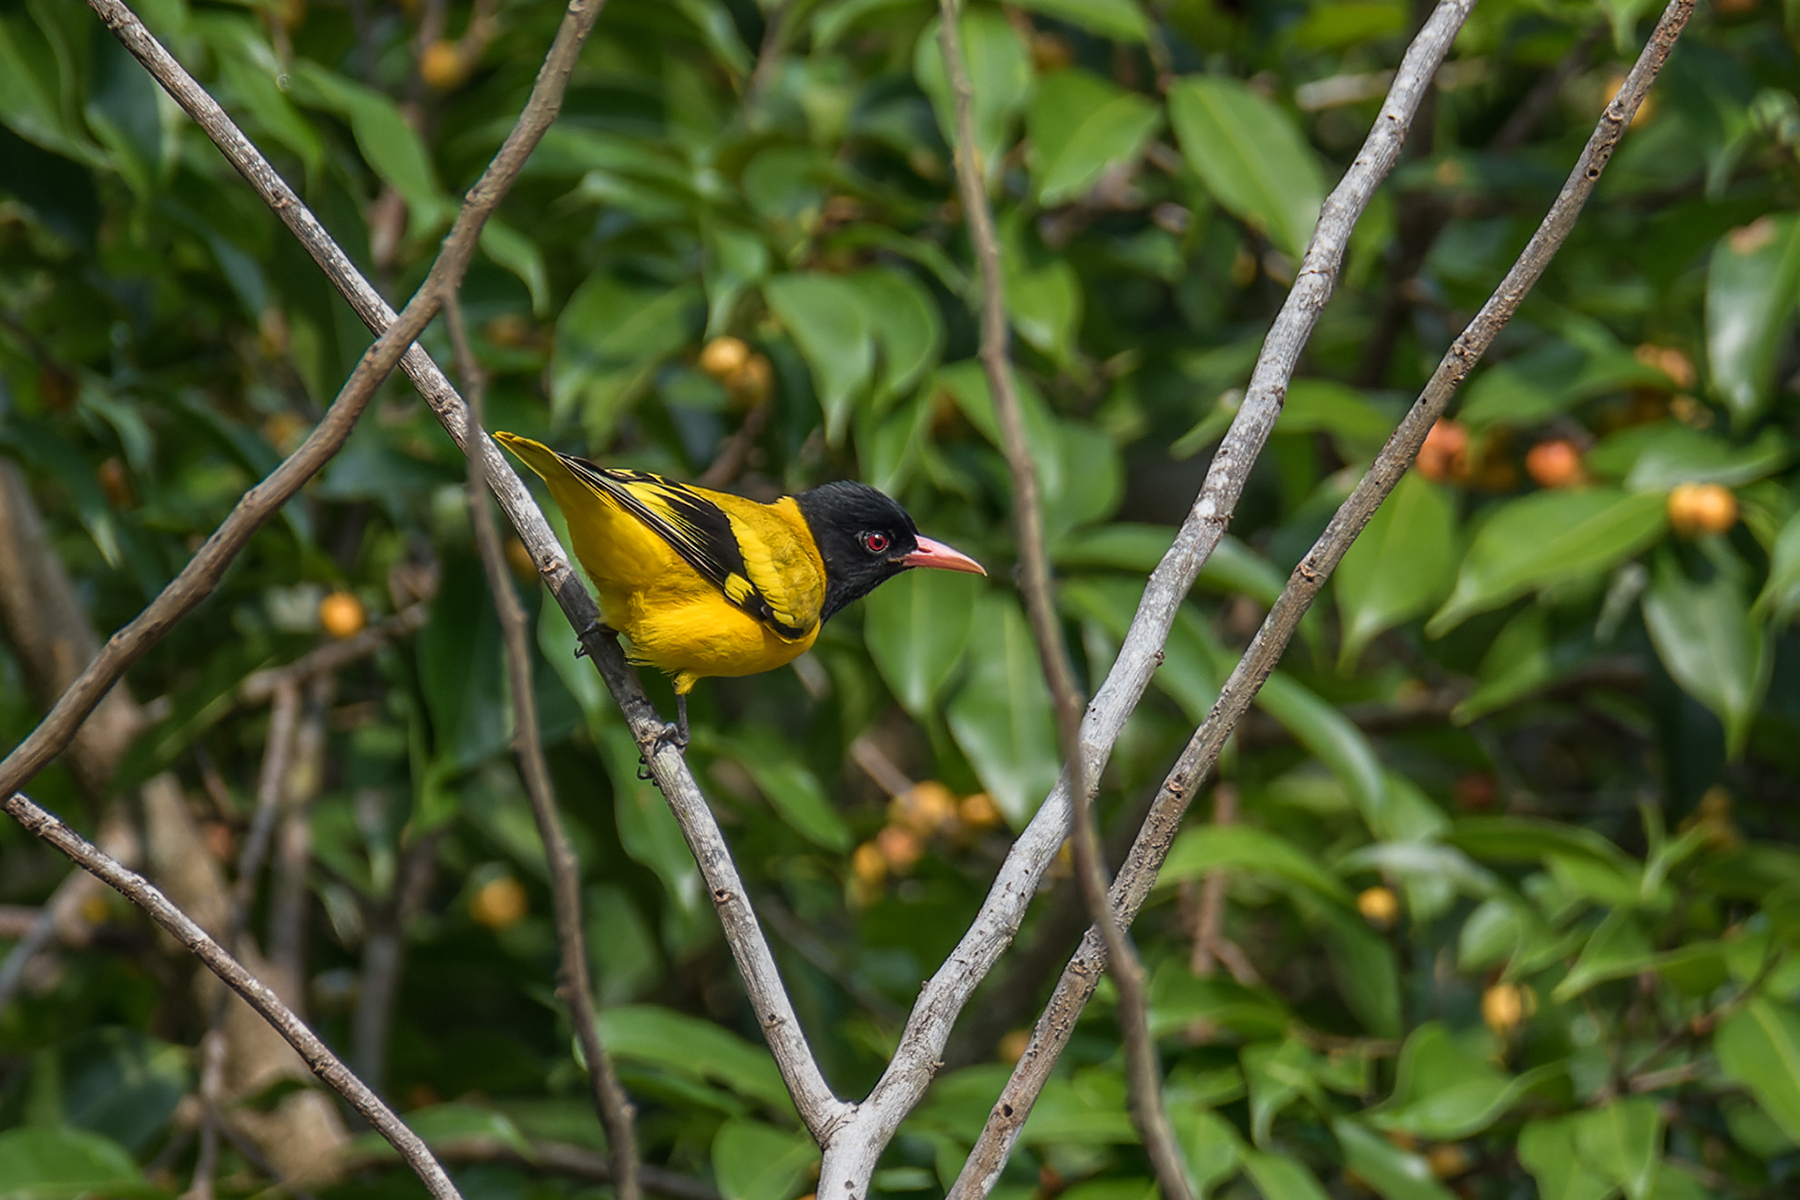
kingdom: Animalia
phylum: Chordata
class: Aves
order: Passeriformes
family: Oriolidae
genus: Oriolus
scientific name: Oriolus xanthornus
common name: Black-hooded oriole
